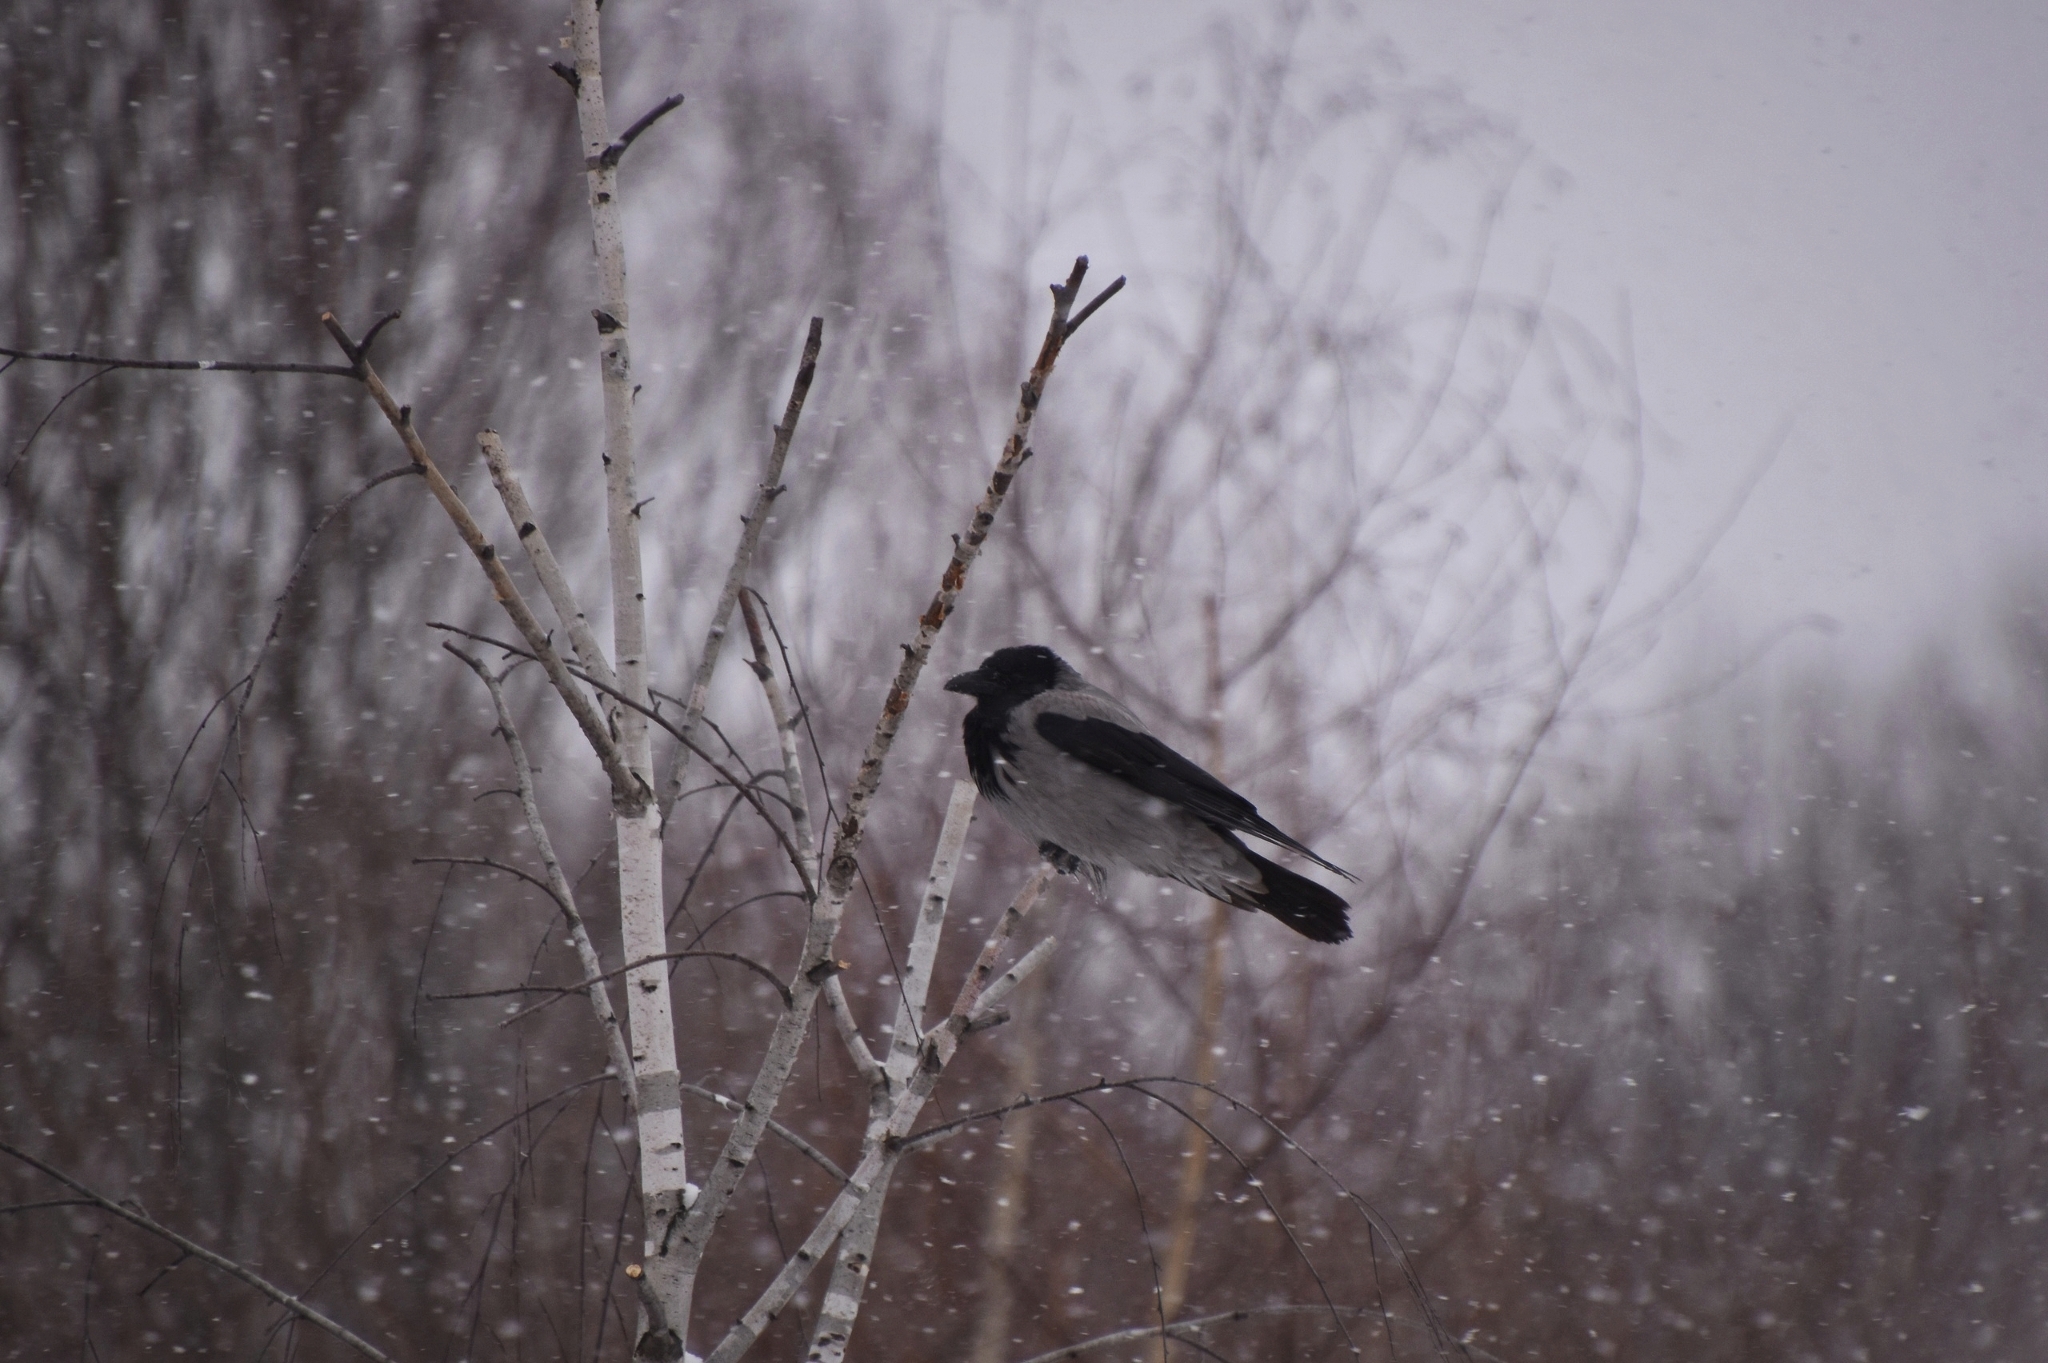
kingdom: Animalia
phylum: Chordata
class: Aves
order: Passeriformes
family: Corvidae
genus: Corvus
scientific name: Corvus cornix
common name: Hooded crow
